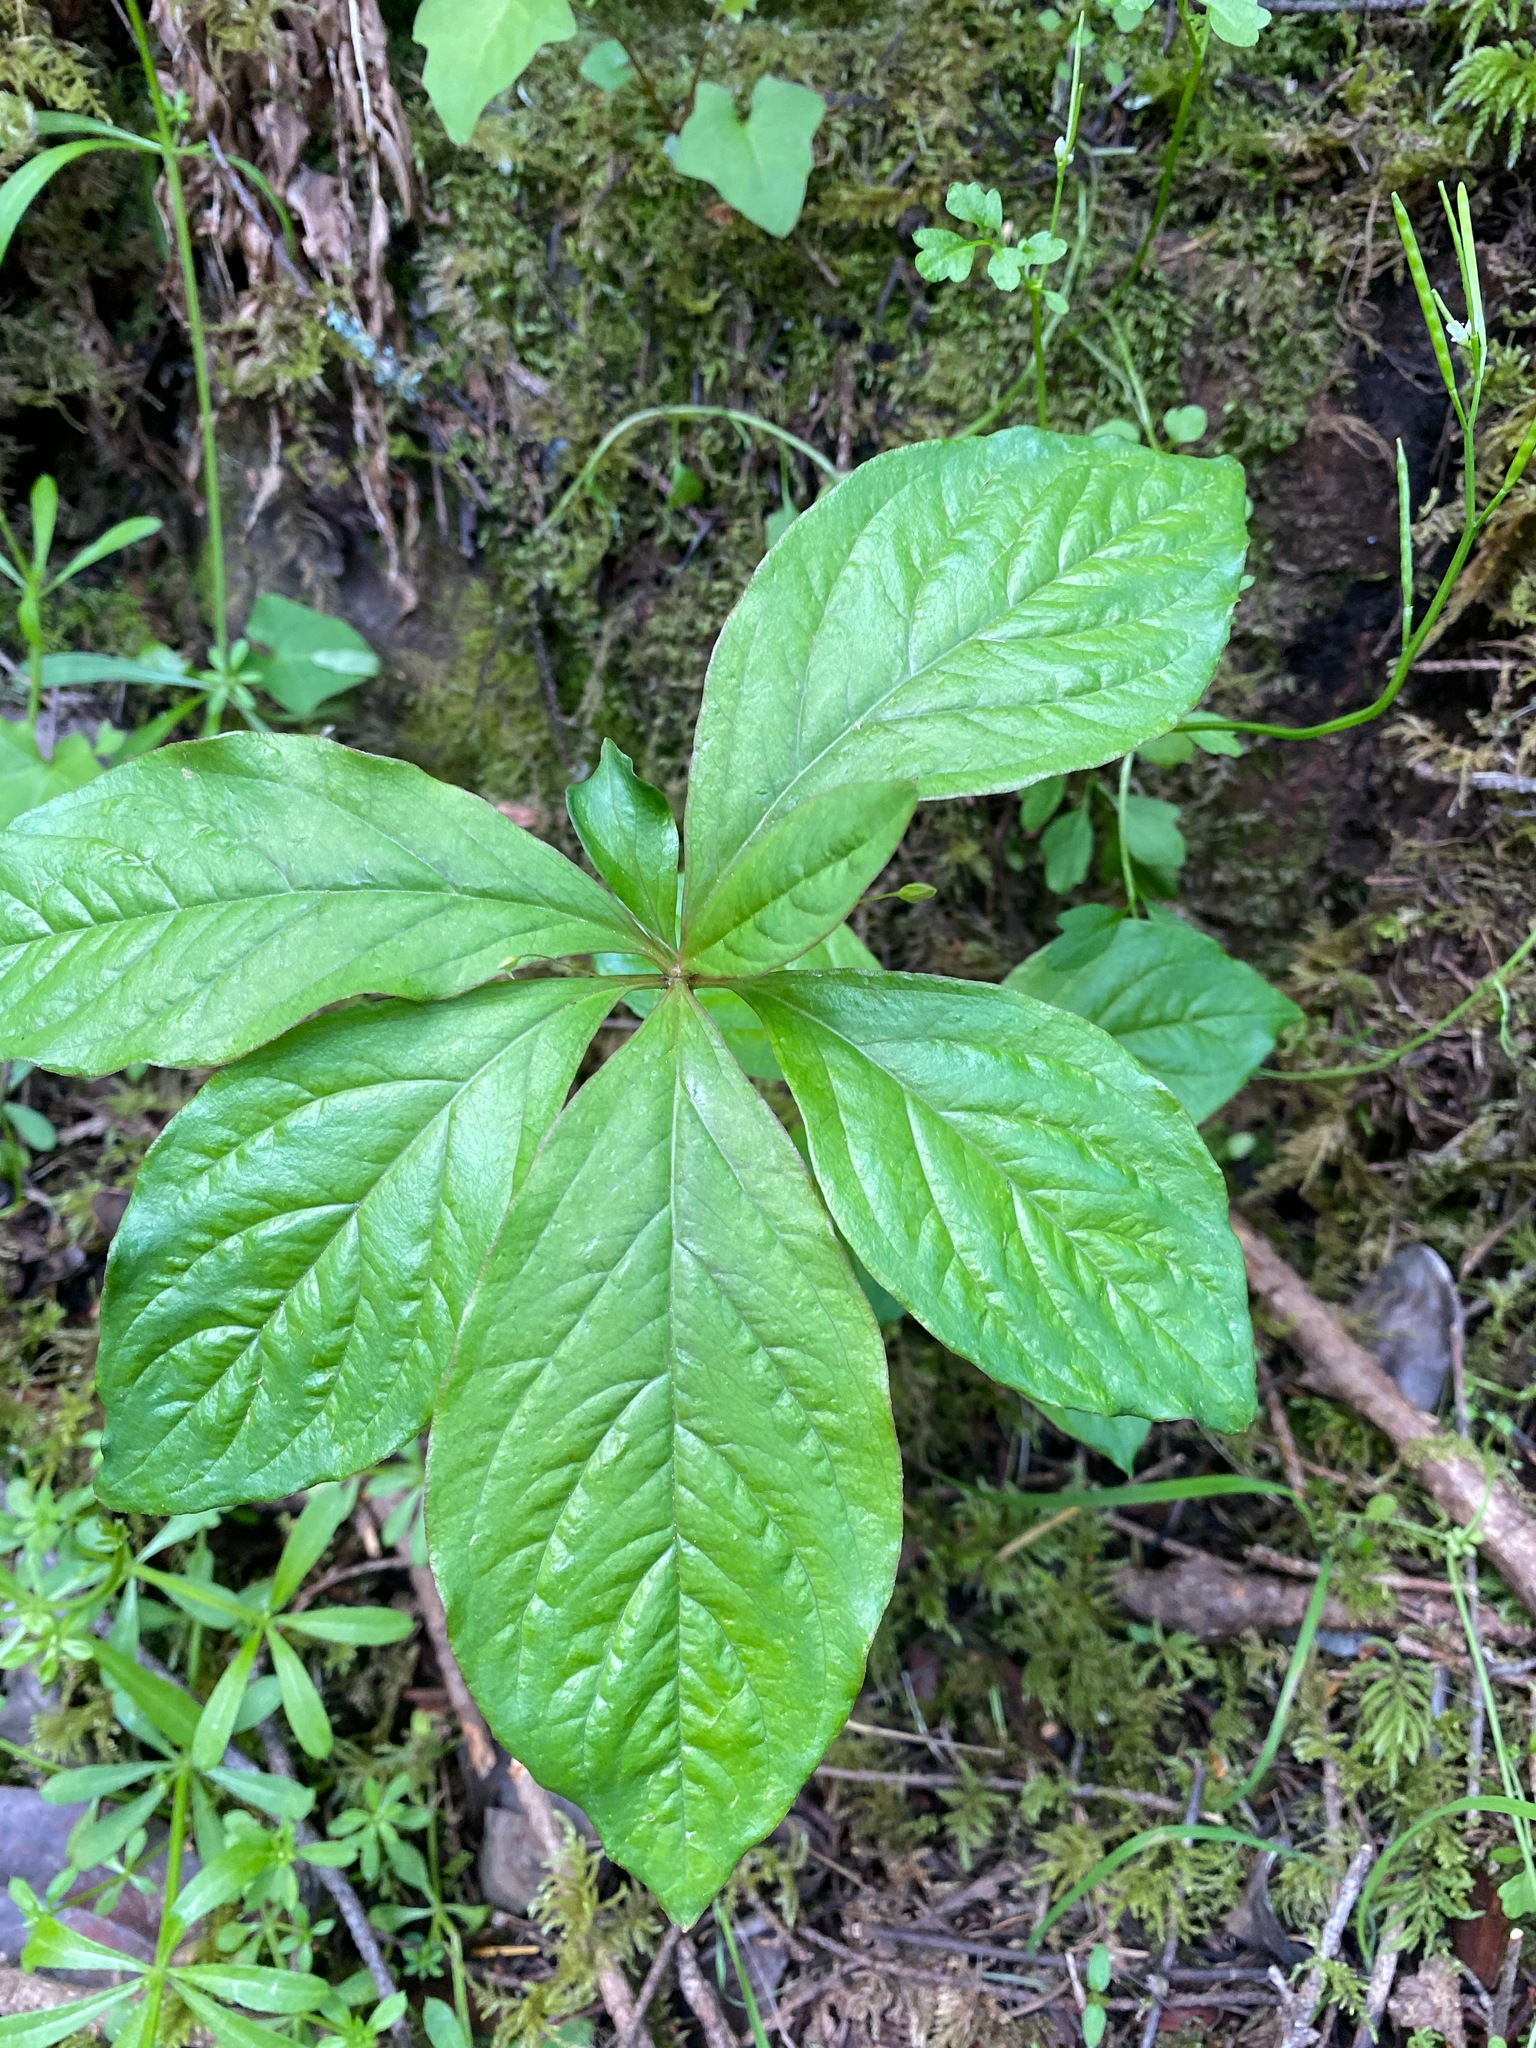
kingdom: Plantae
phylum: Tracheophyta
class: Magnoliopsida
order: Ericales
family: Primulaceae
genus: Lysimachia
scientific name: Lysimachia latifolia
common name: Pacific starflower
